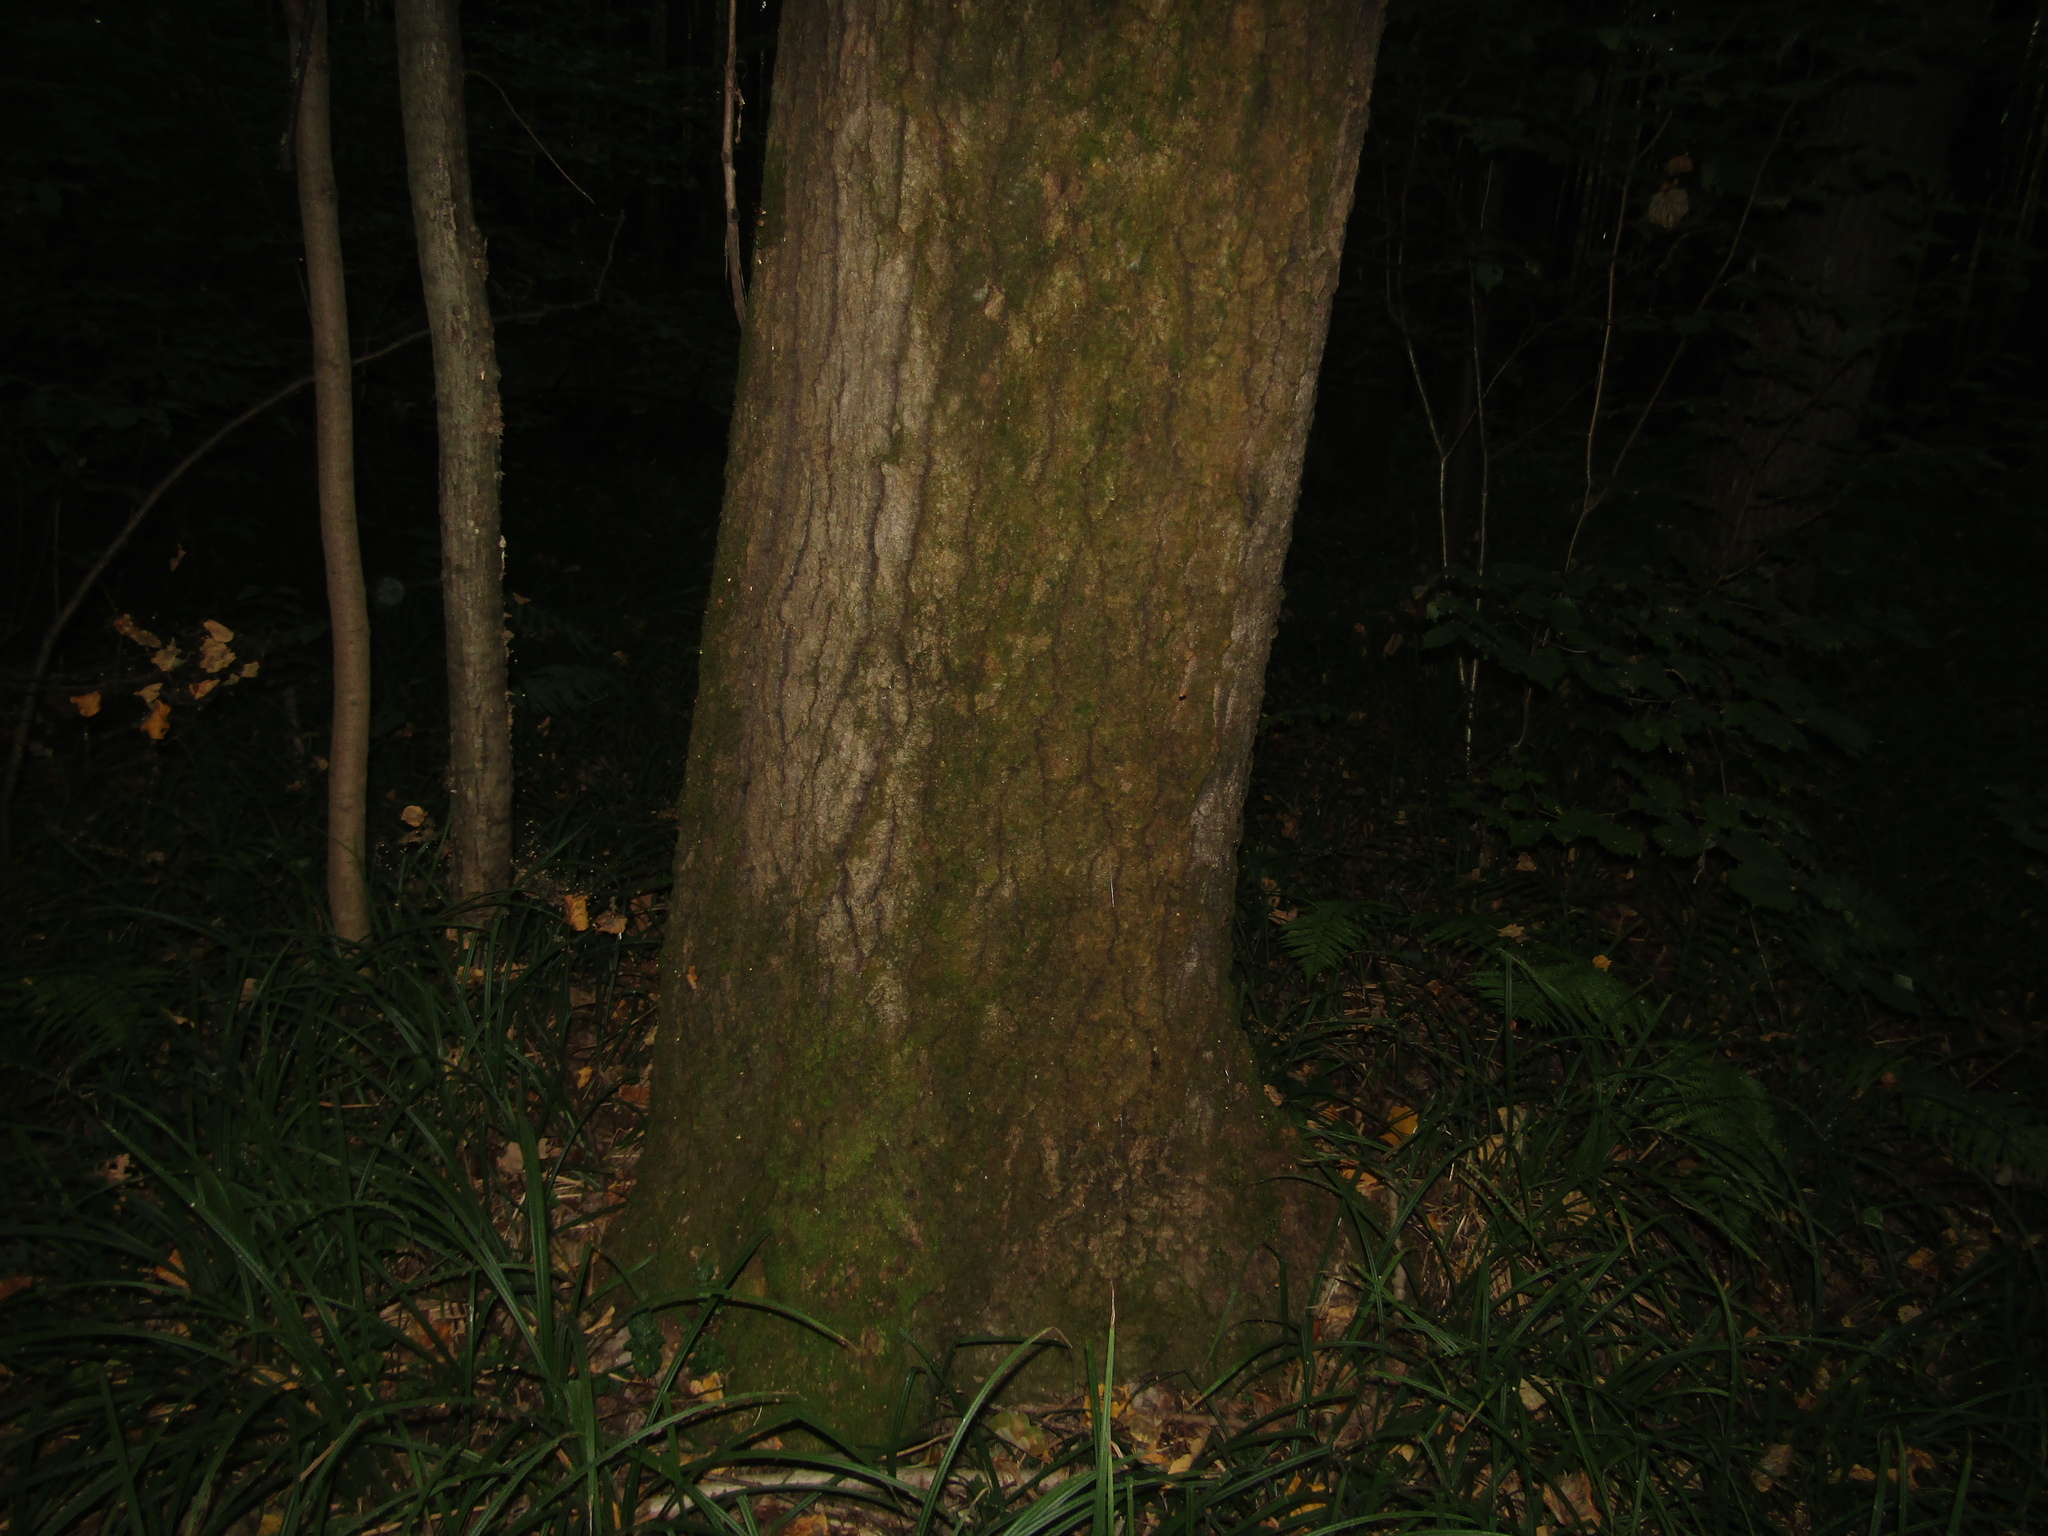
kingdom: Plantae
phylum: Tracheophyta
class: Magnoliopsida
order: Malpighiales
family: Salicaceae
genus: Populus
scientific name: Populus tremula
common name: European aspen
